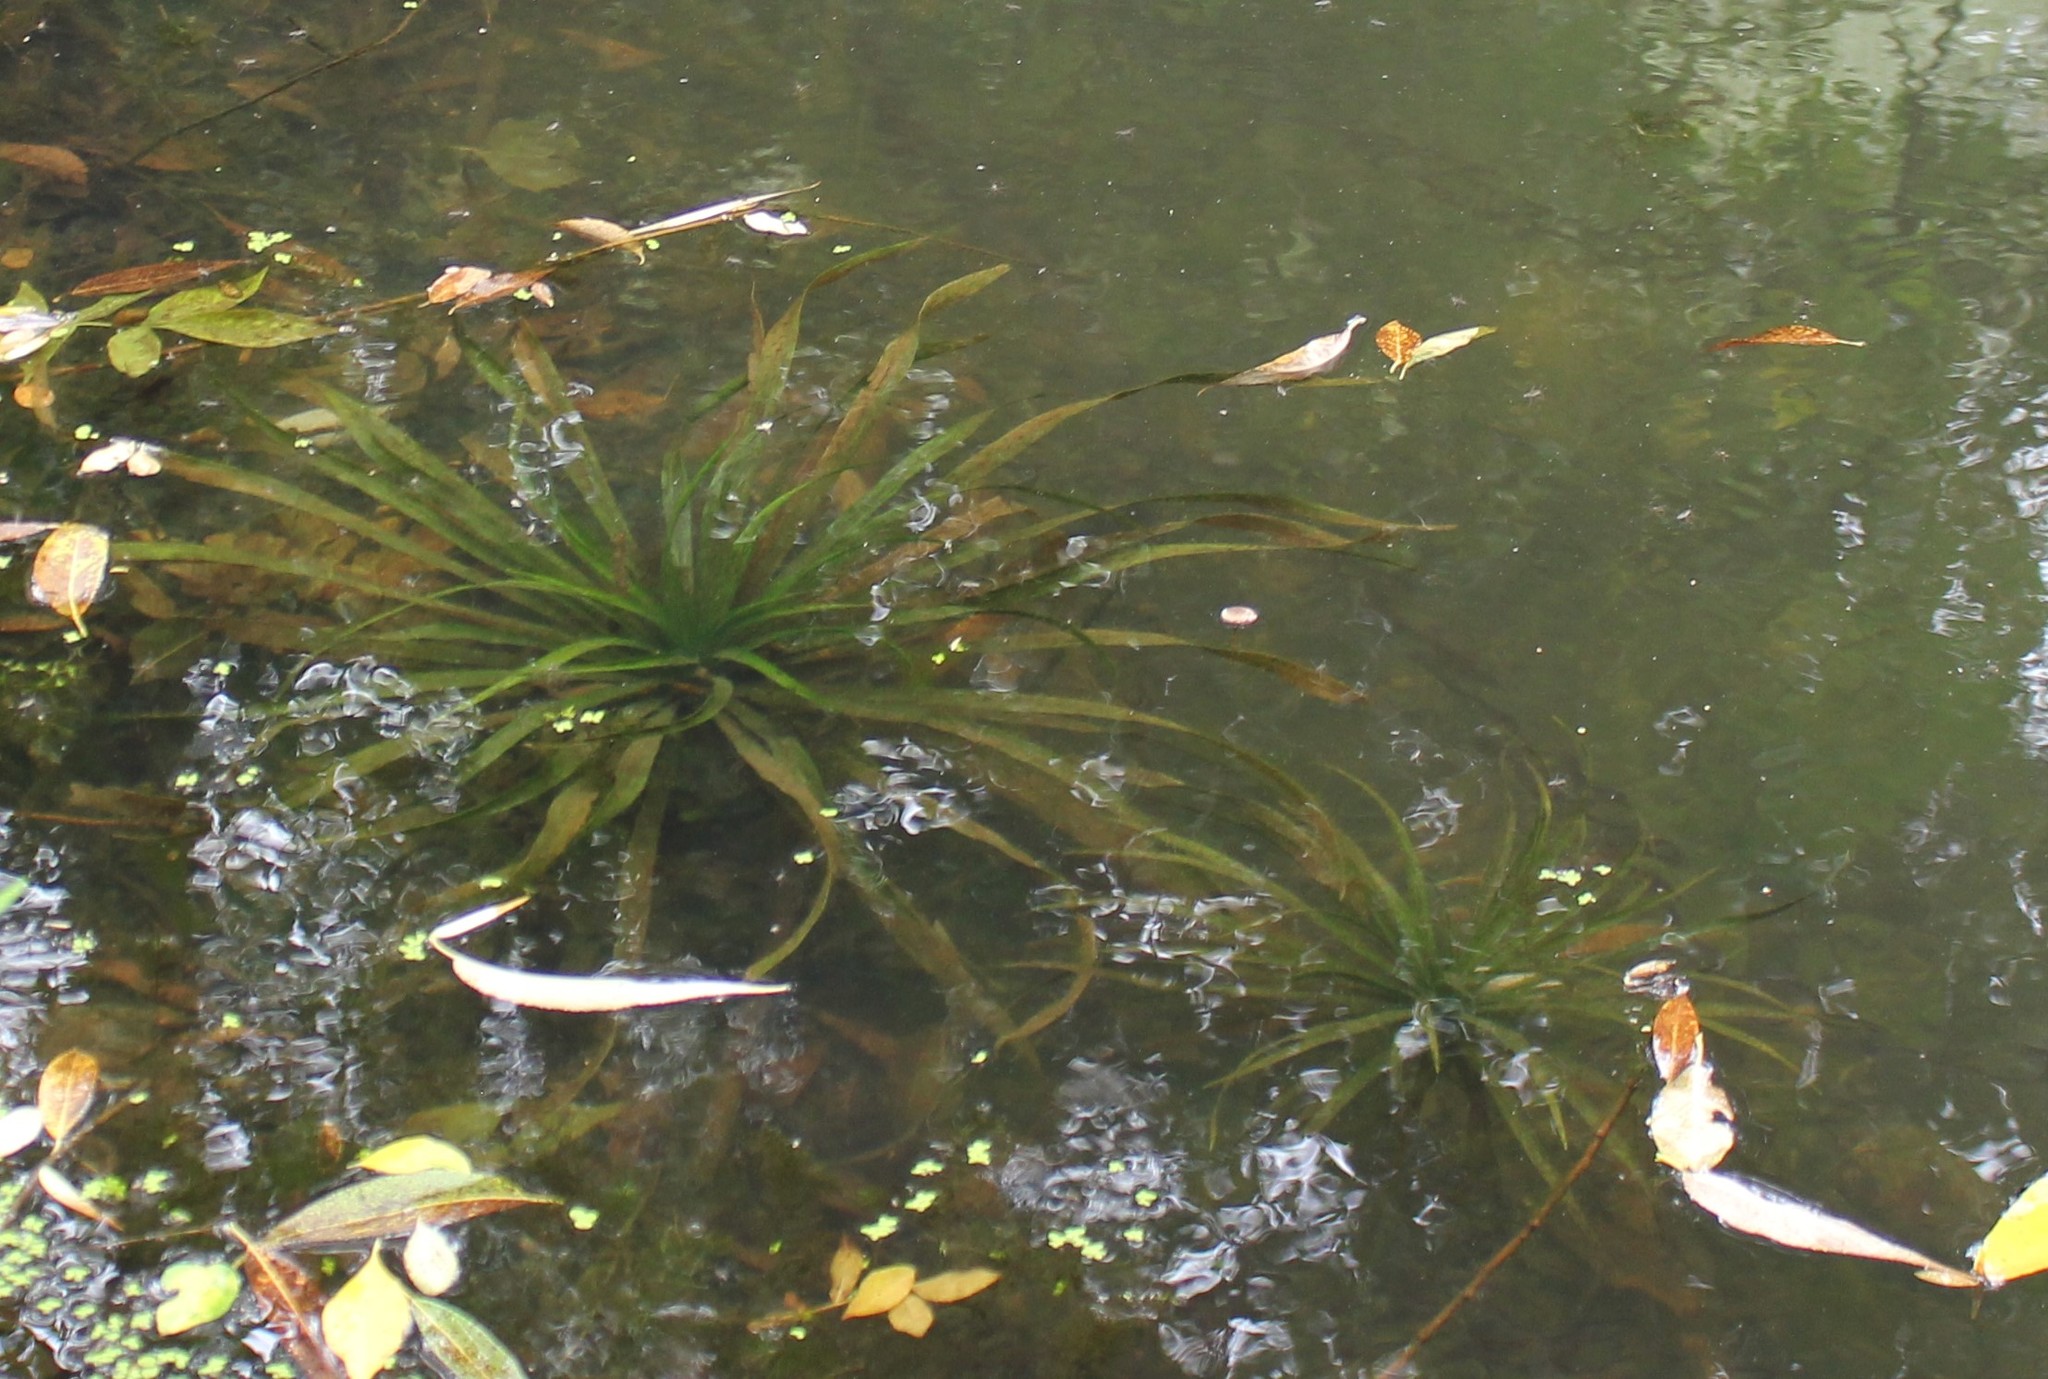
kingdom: Plantae
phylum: Tracheophyta
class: Liliopsida
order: Alismatales
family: Hydrocharitaceae
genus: Stratiotes
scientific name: Stratiotes aloides
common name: Water-soldier
